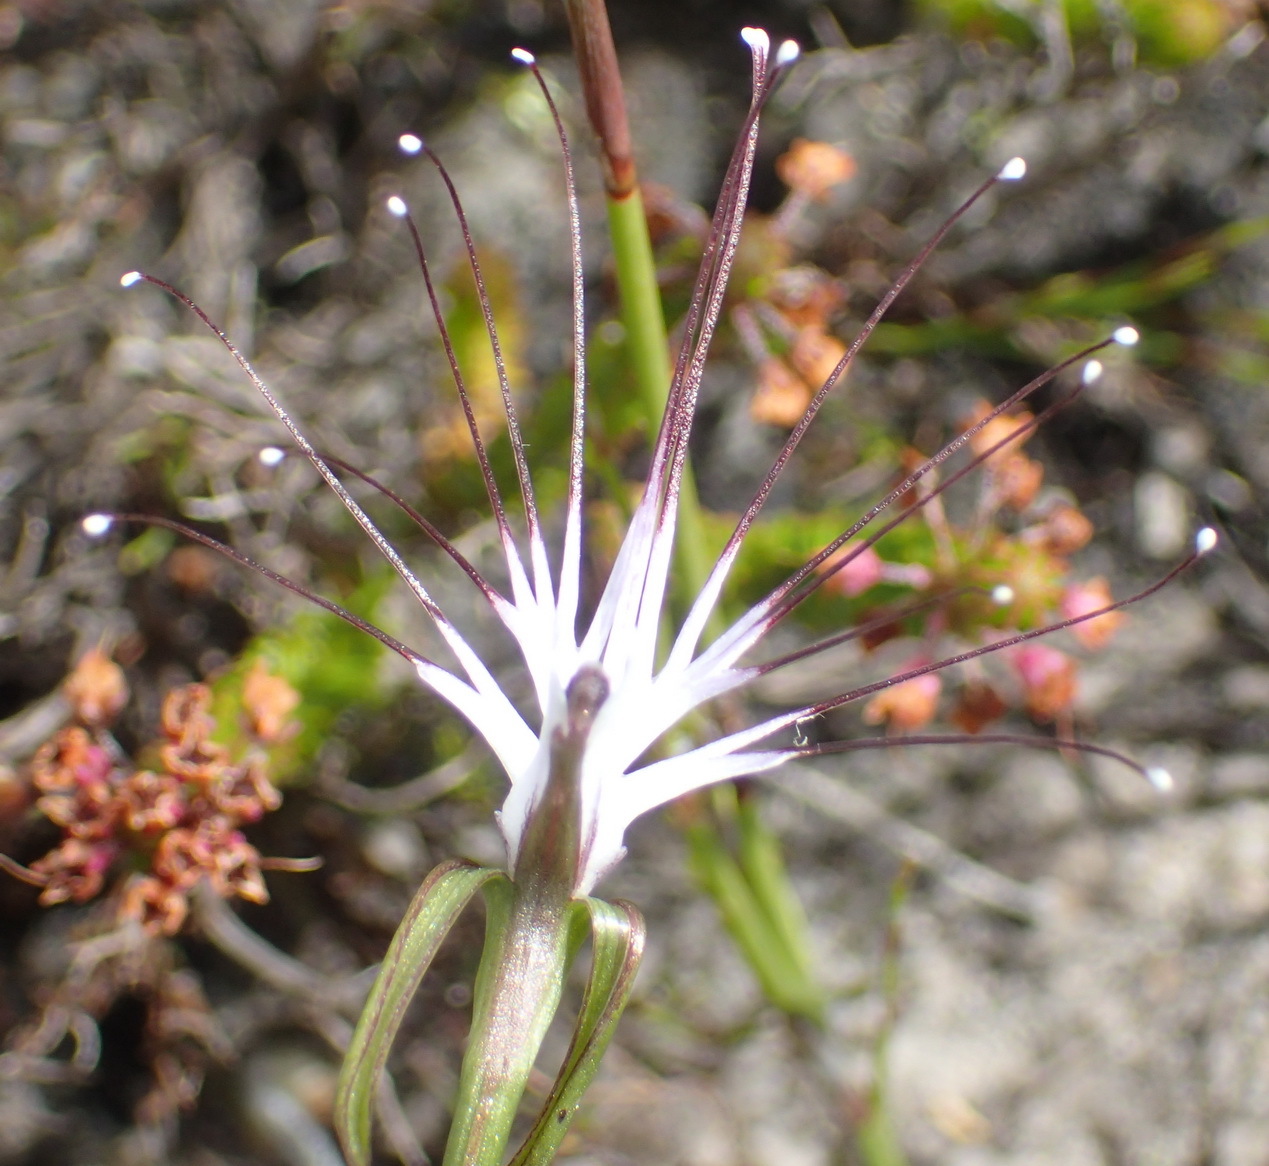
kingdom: Plantae
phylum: Tracheophyta
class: Liliopsida
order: Asparagales
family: Orchidaceae
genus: Holothrix
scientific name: Holothrix etheliae
